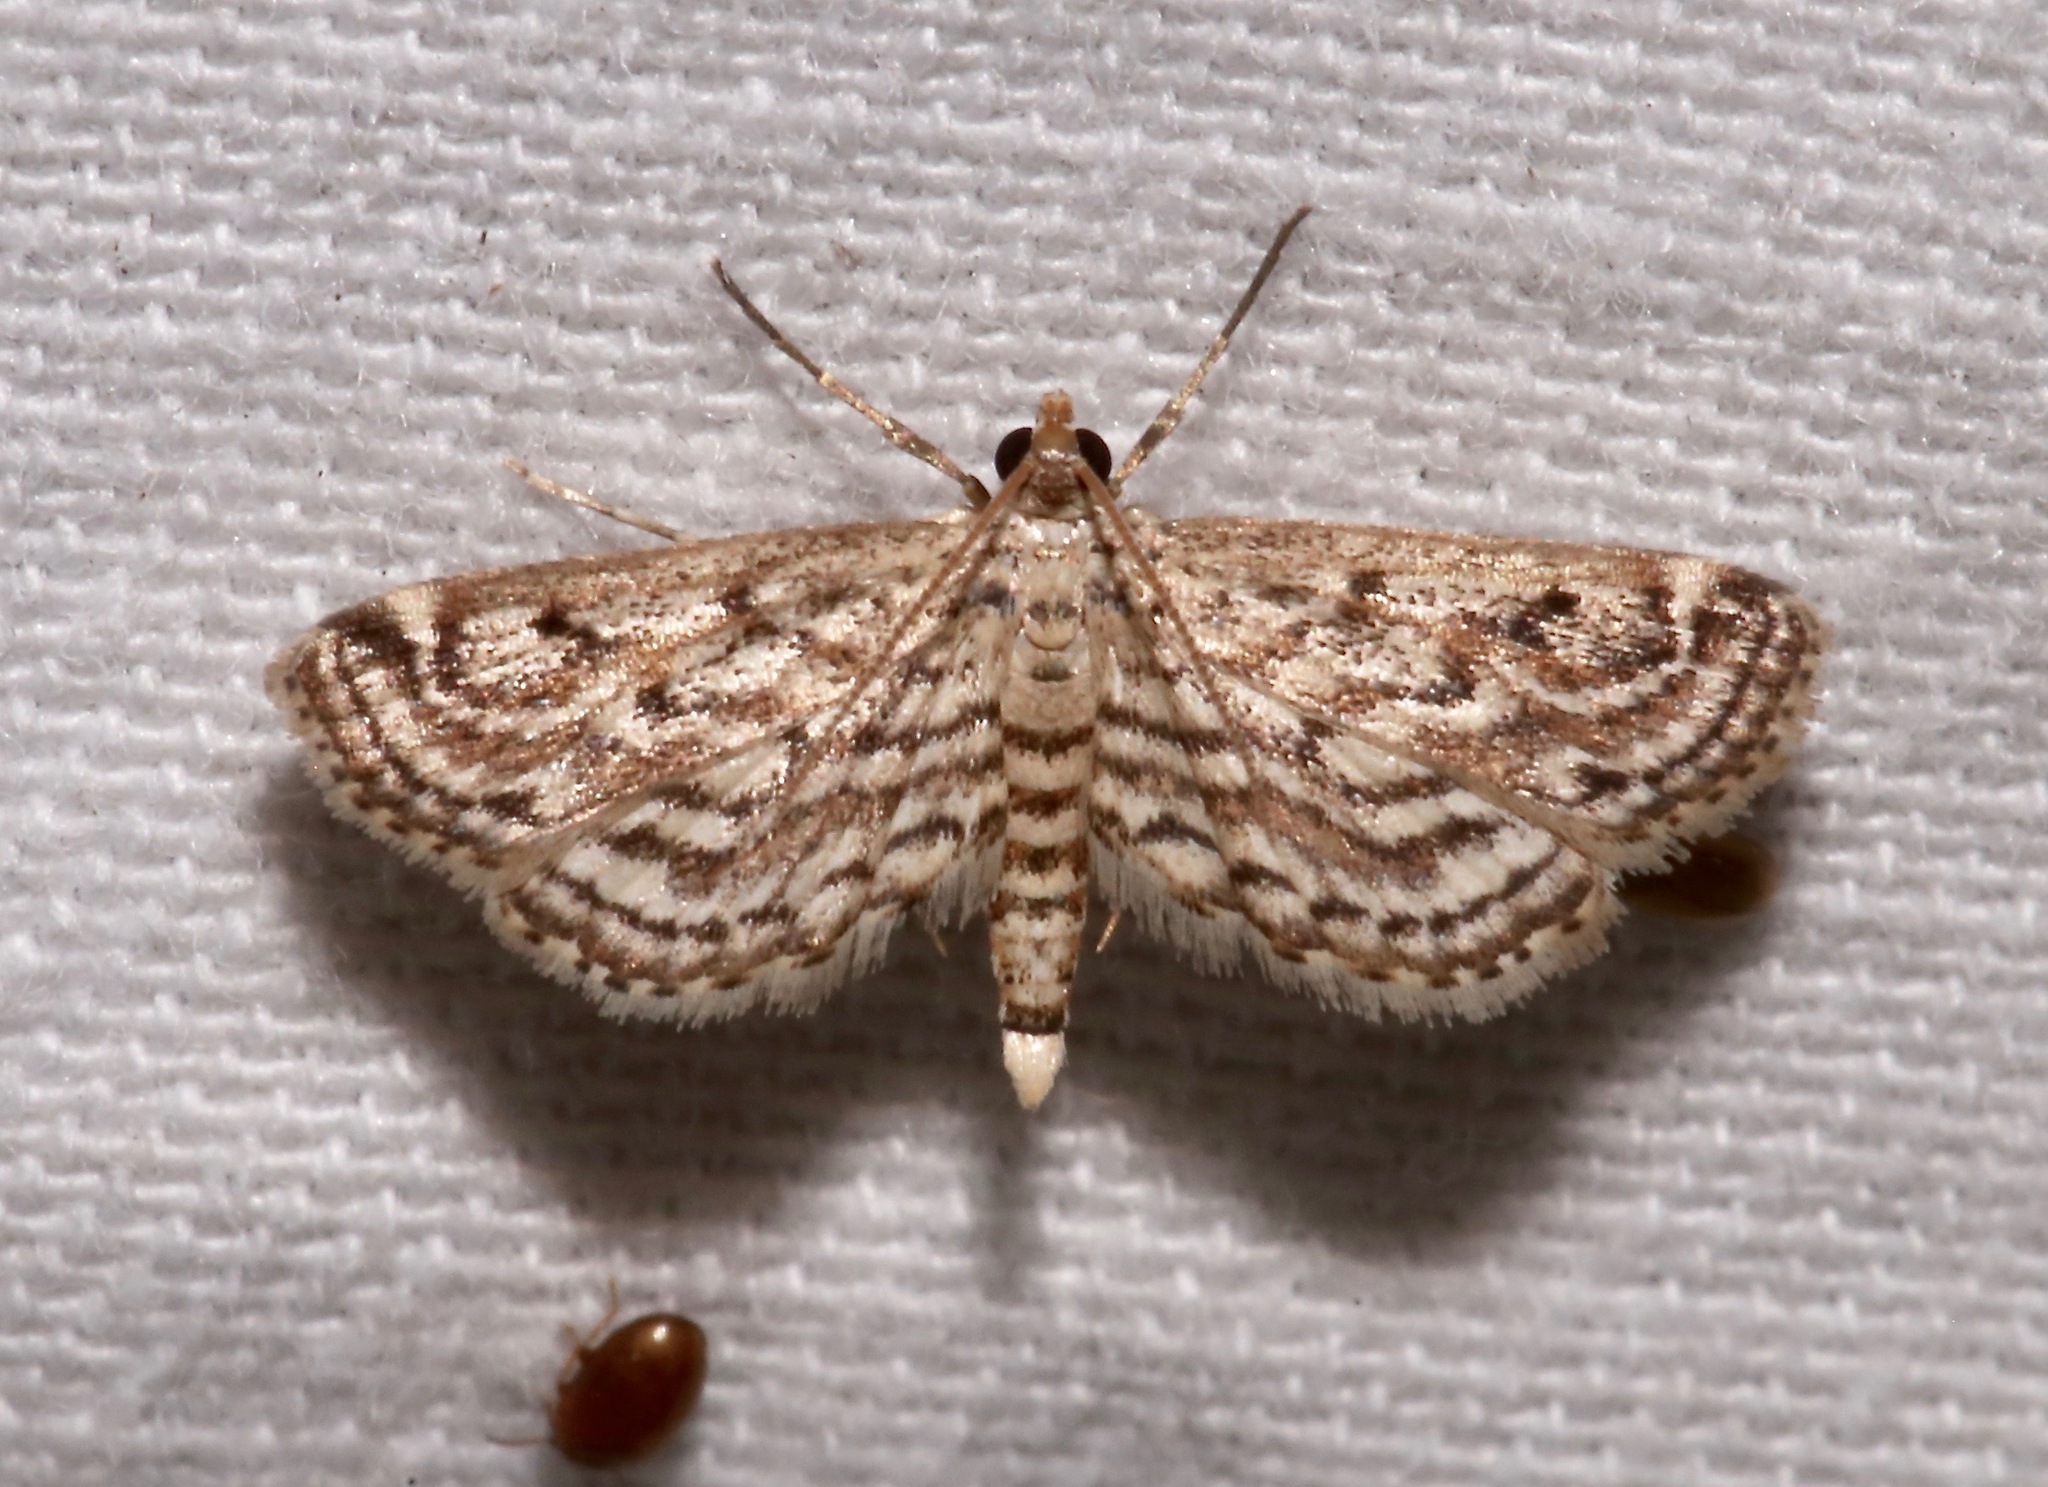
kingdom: Animalia
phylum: Arthropoda
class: Insecta
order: Lepidoptera
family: Crambidae
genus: Parapoynx
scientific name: Parapoynx allionealis
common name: Bladderwort casemaker
